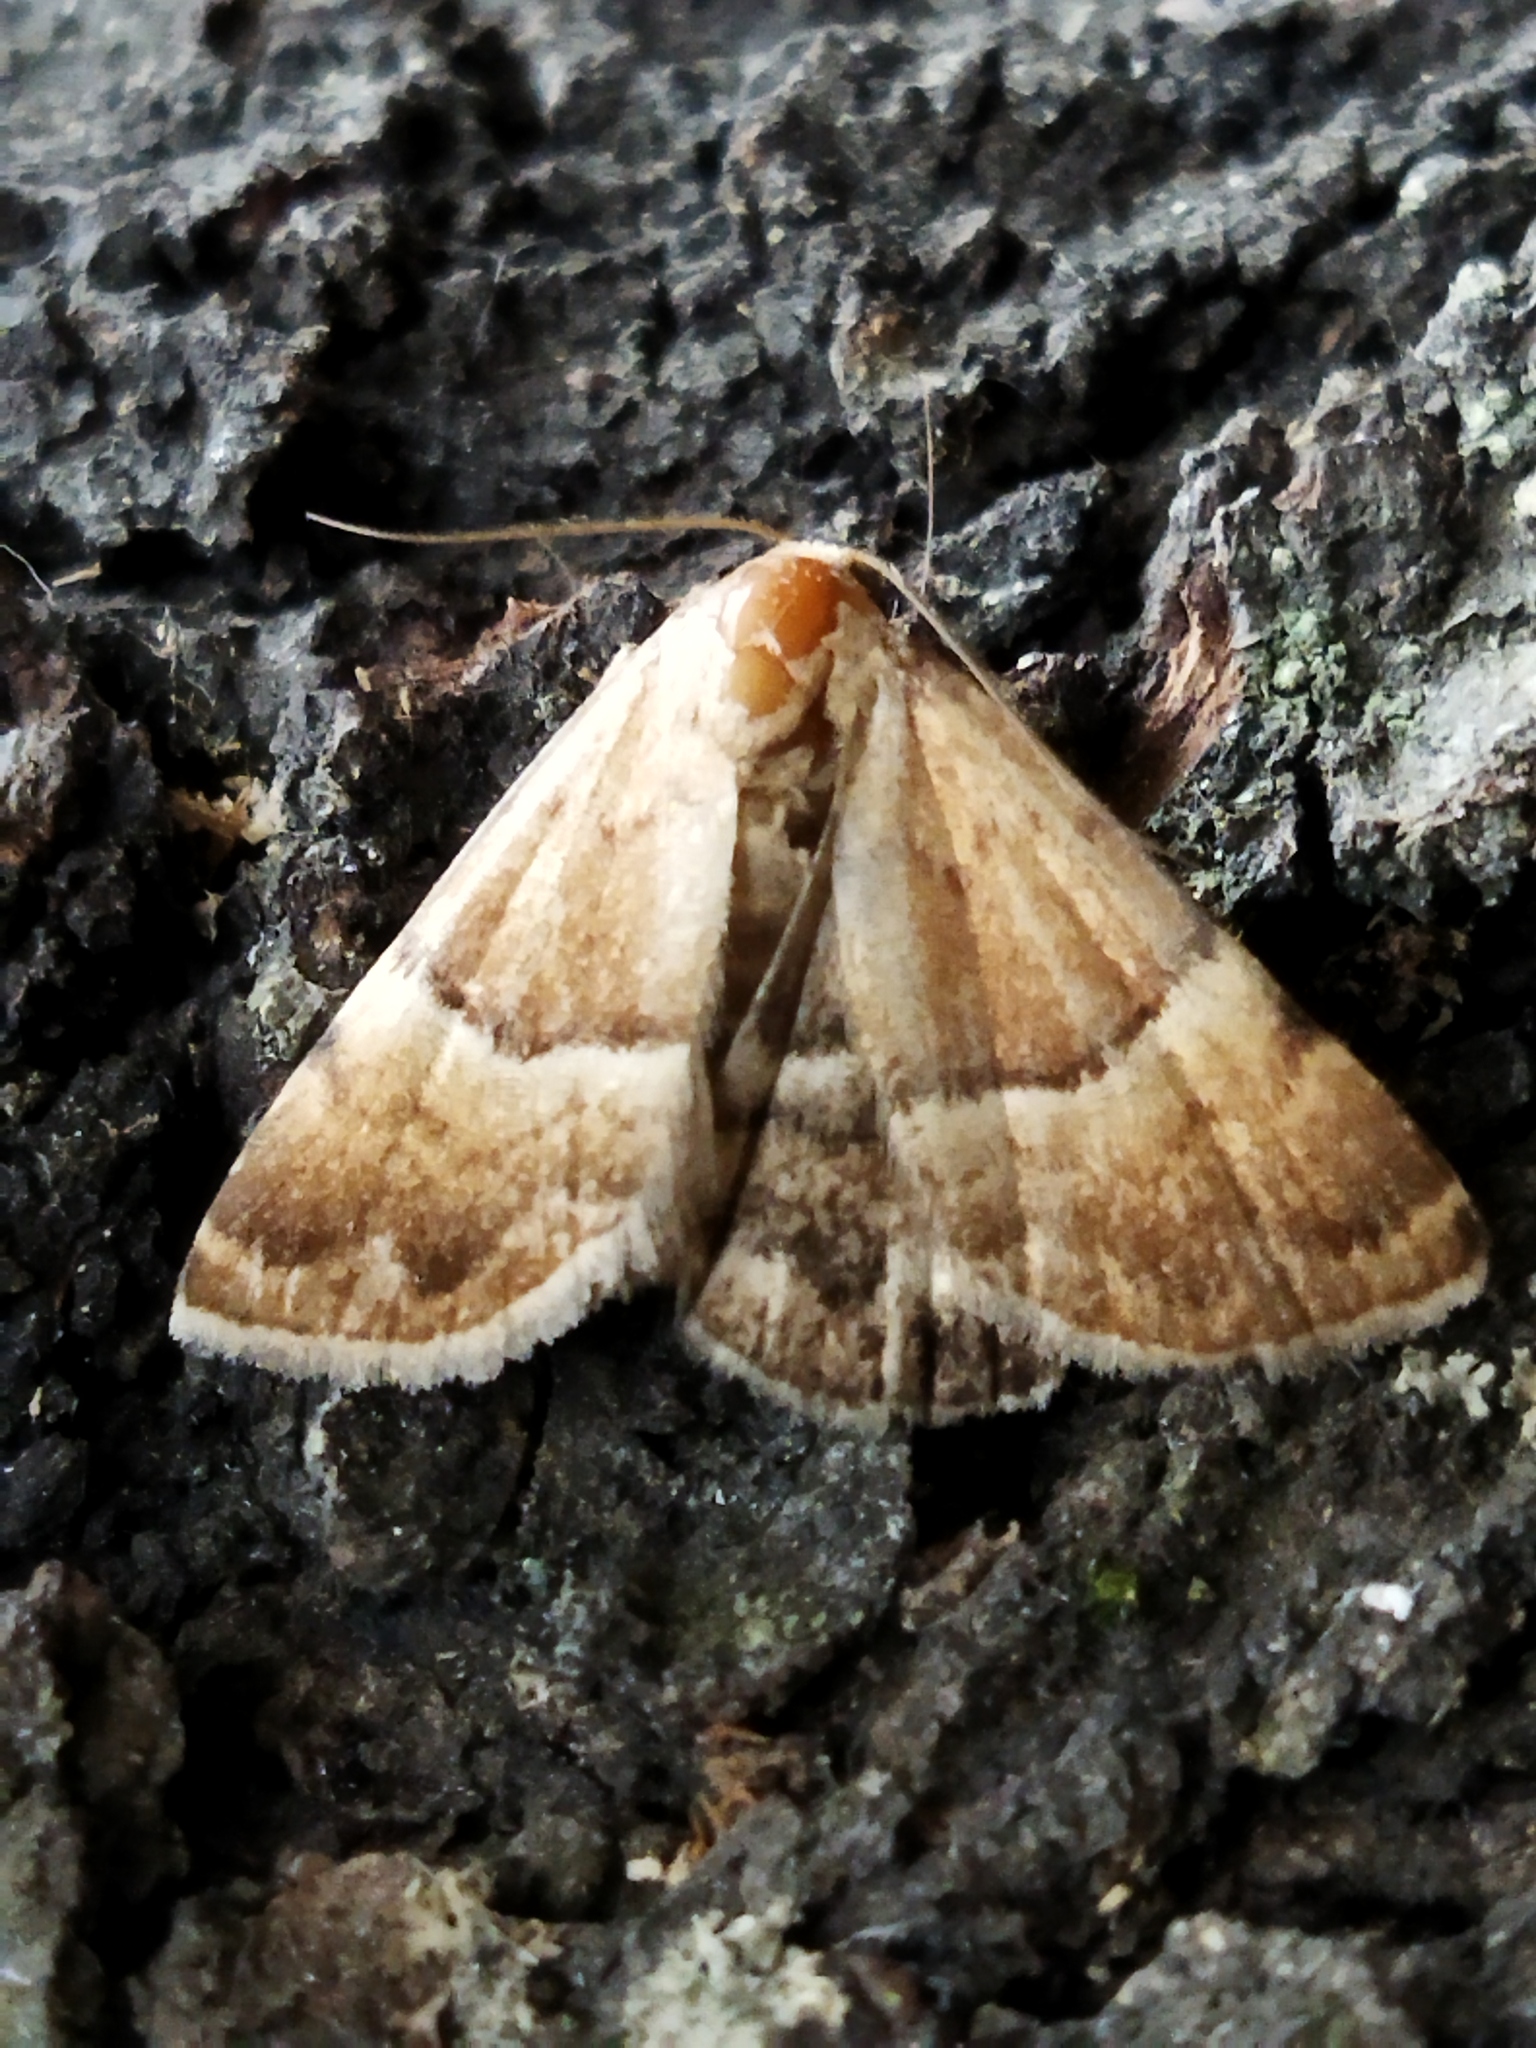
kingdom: Animalia
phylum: Arthropoda
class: Insecta
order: Lepidoptera
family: Noctuidae
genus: Odice
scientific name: Odice suava
